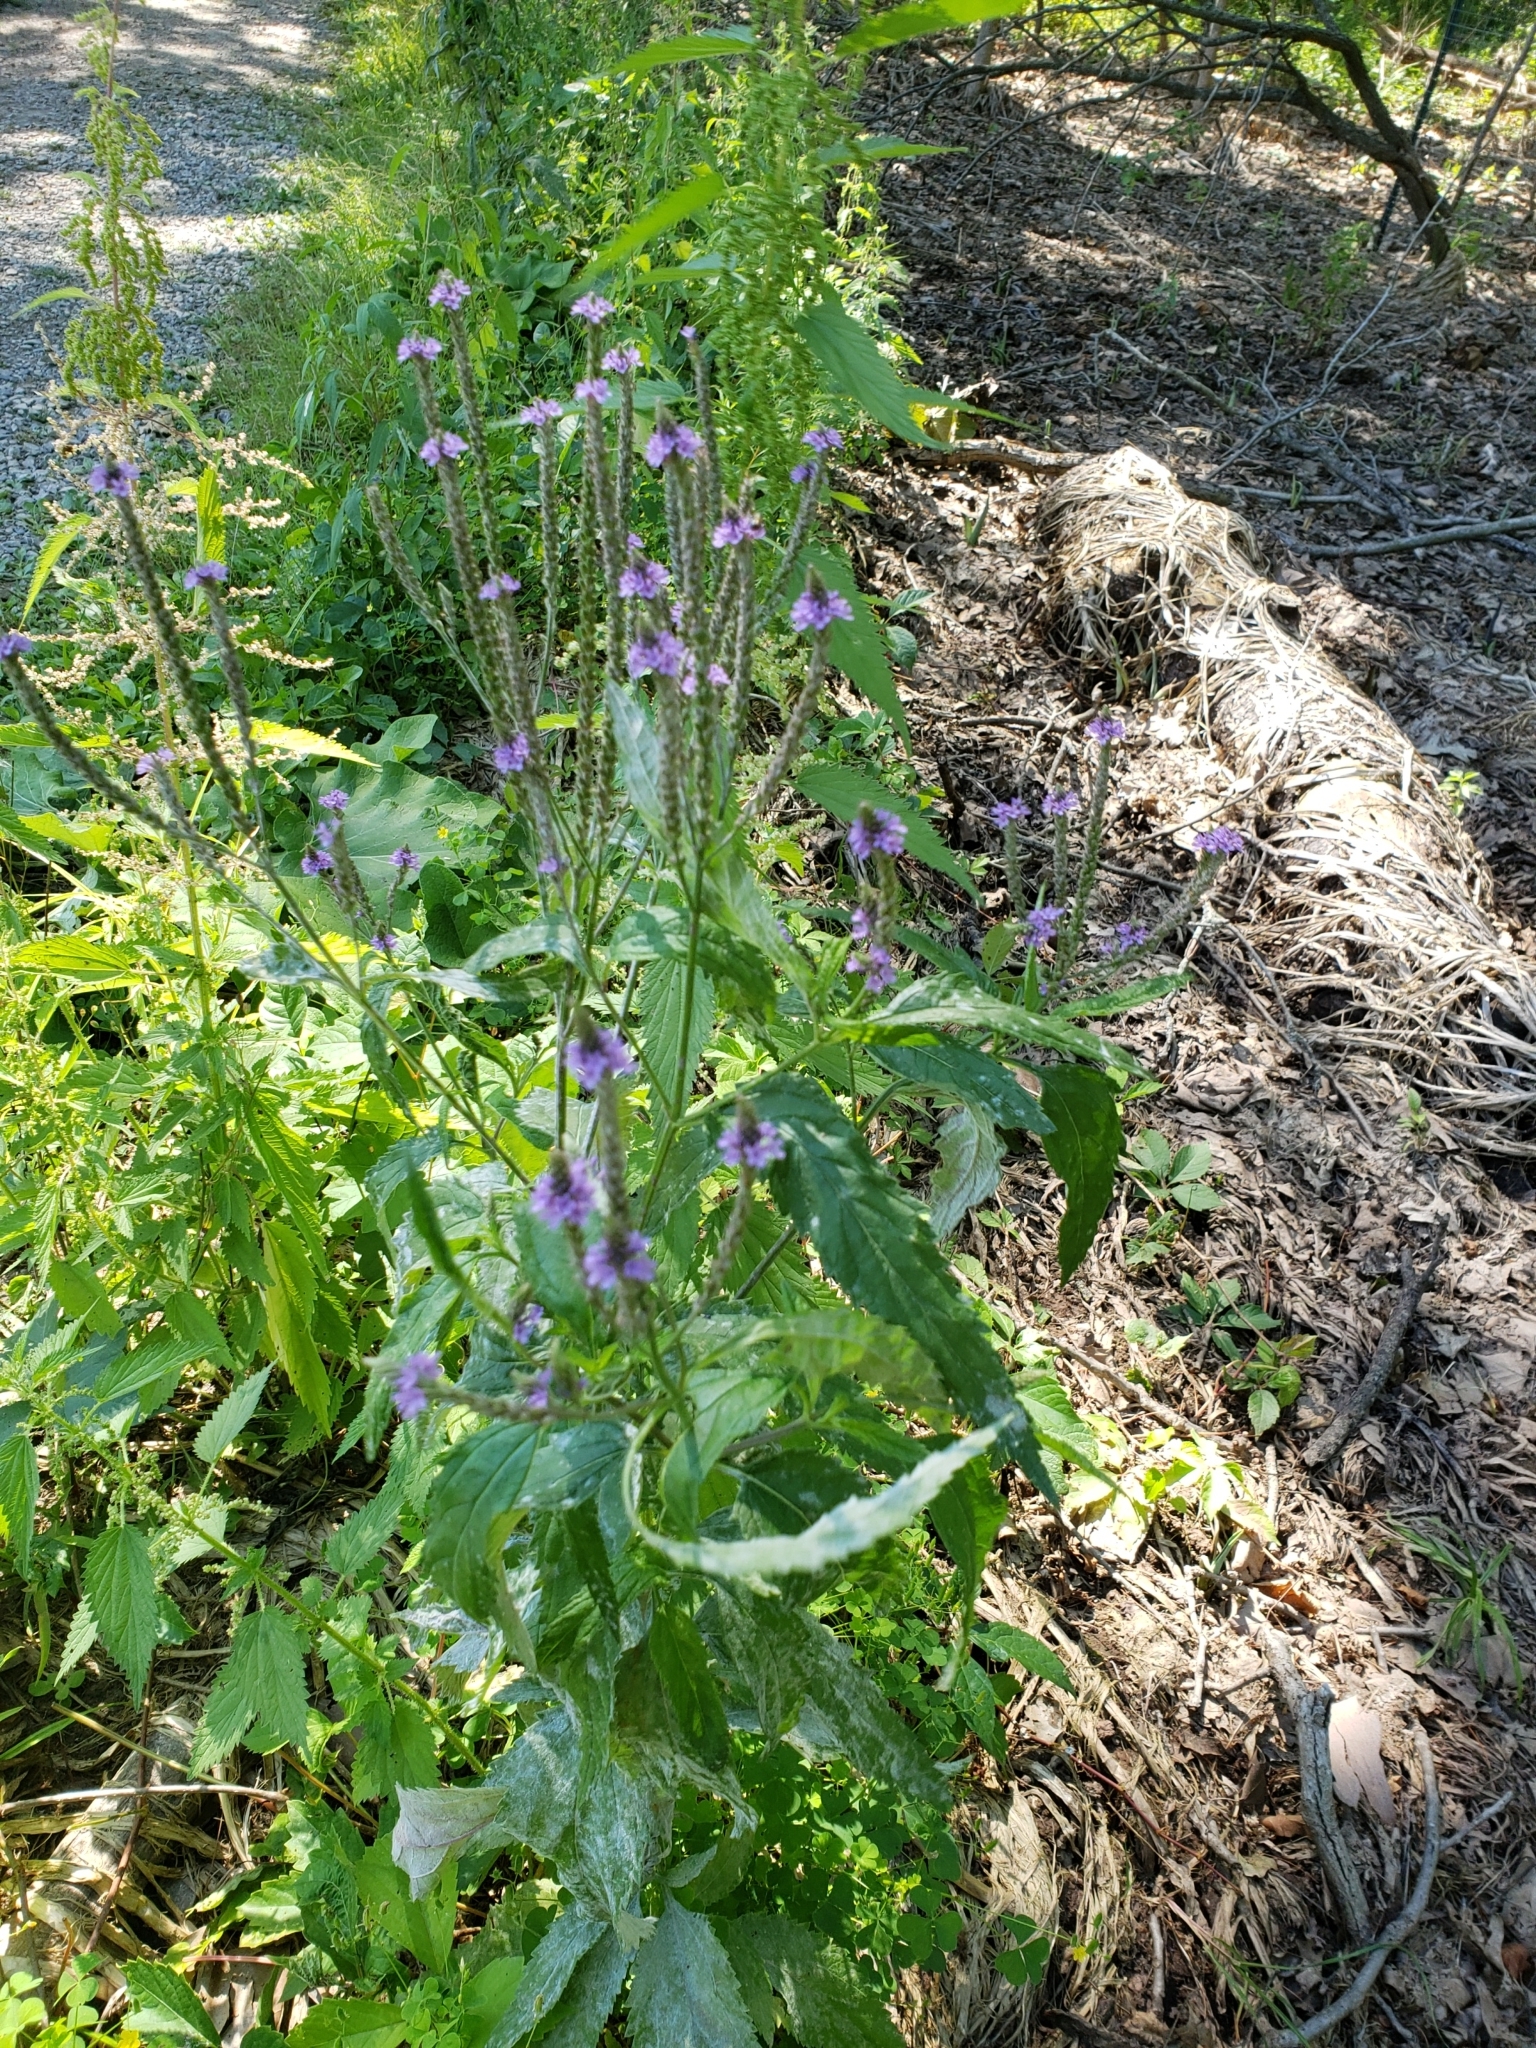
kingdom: Plantae
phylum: Tracheophyta
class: Magnoliopsida
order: Lamiales
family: Verbenaceae
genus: Verbena
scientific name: Verbena hastata
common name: American blue vervain
